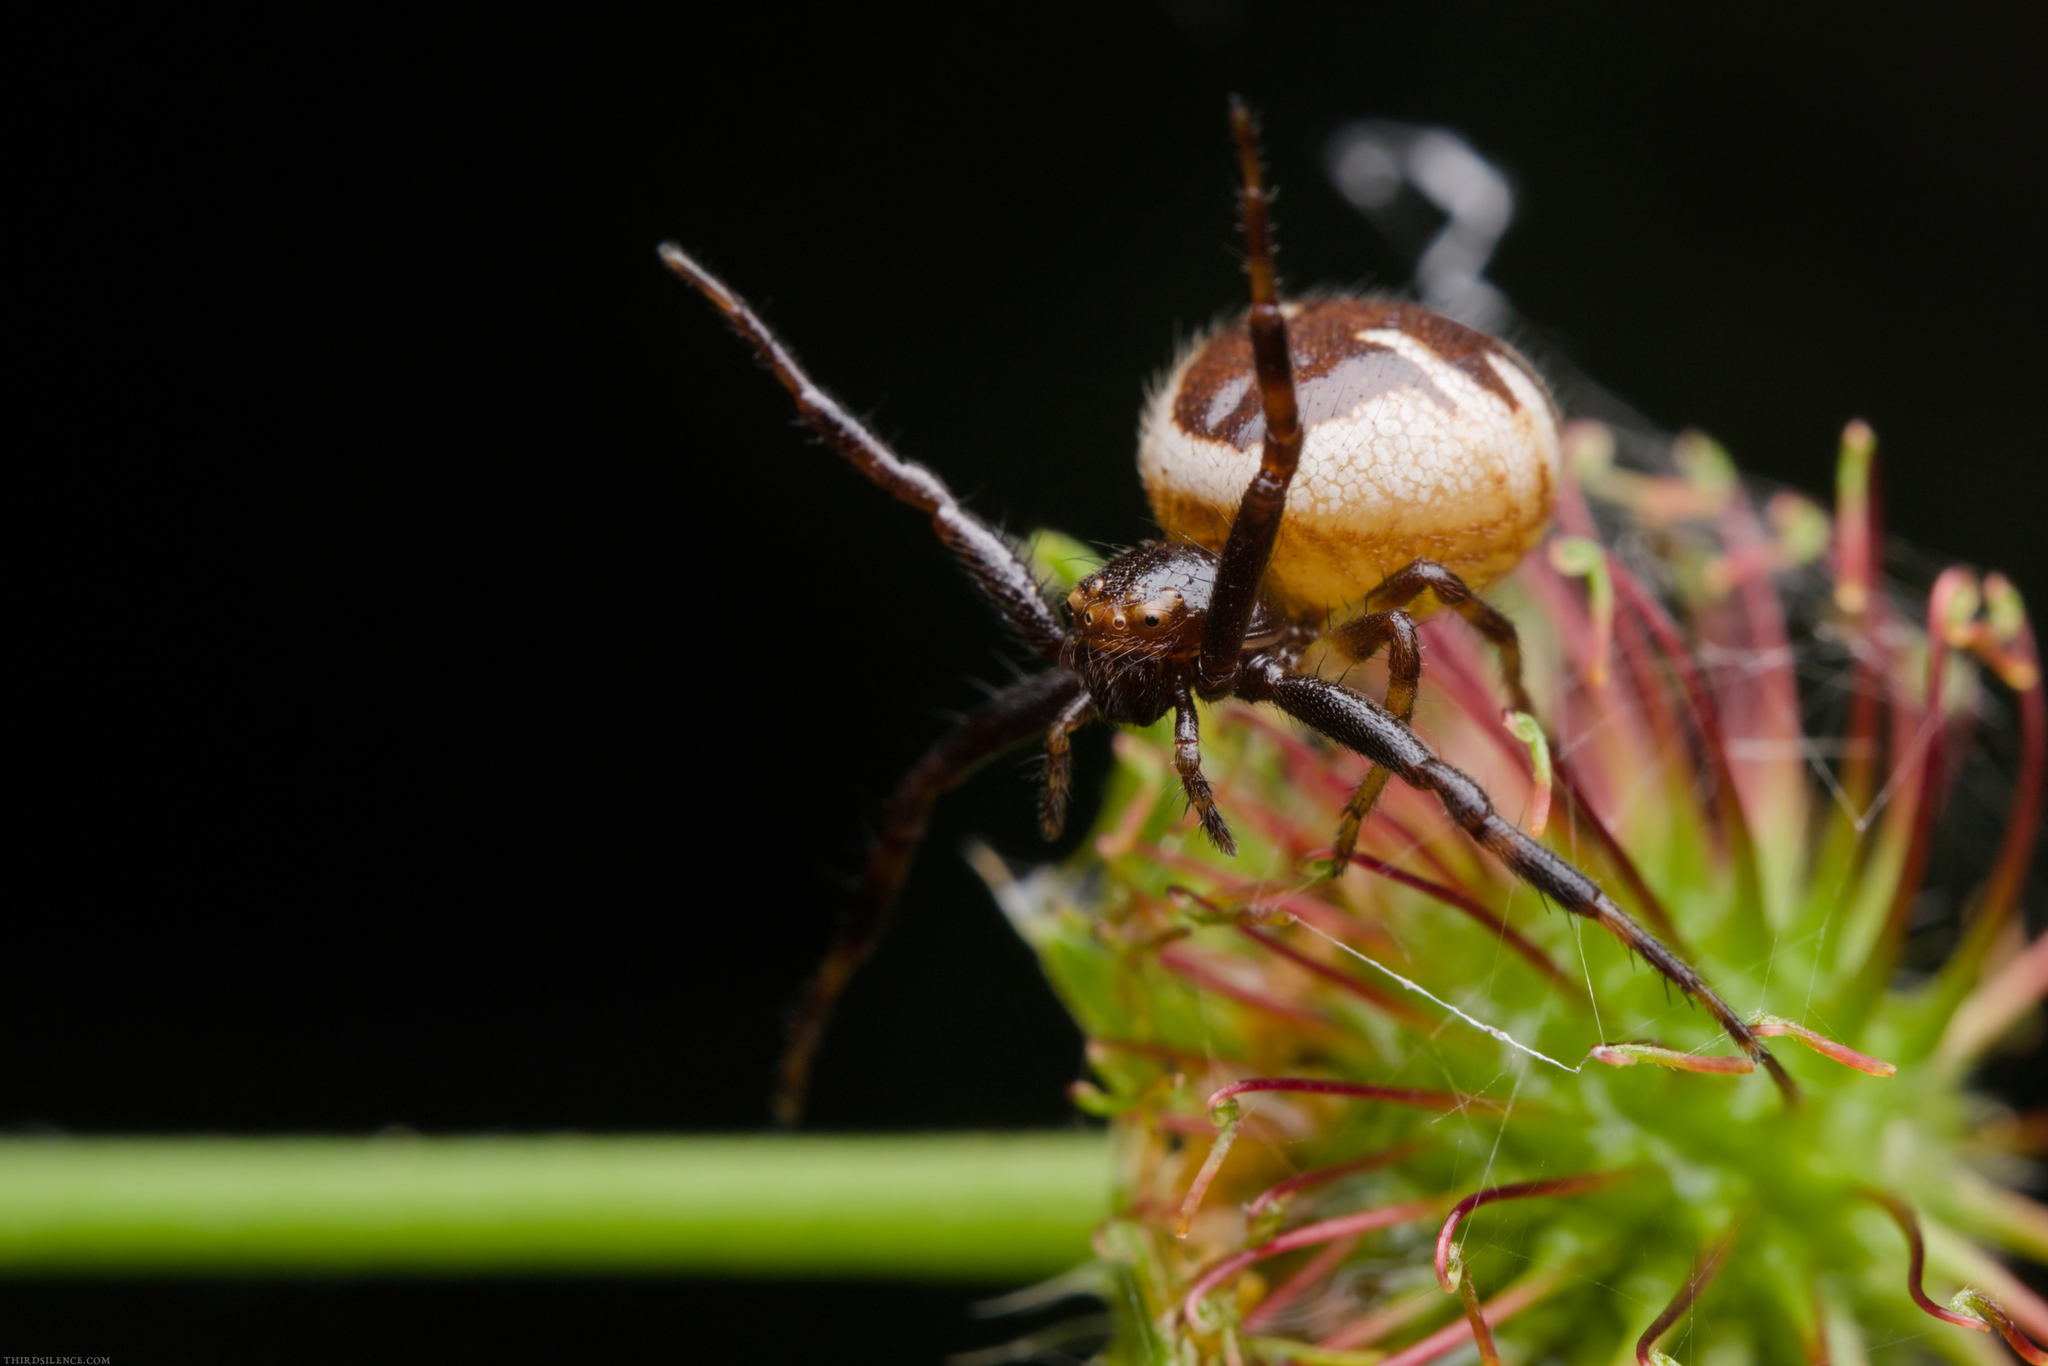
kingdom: Animalia
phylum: Arthropoda
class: Arachnida
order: Araneae
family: Thomisidae
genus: Synema
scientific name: Synema globosum
